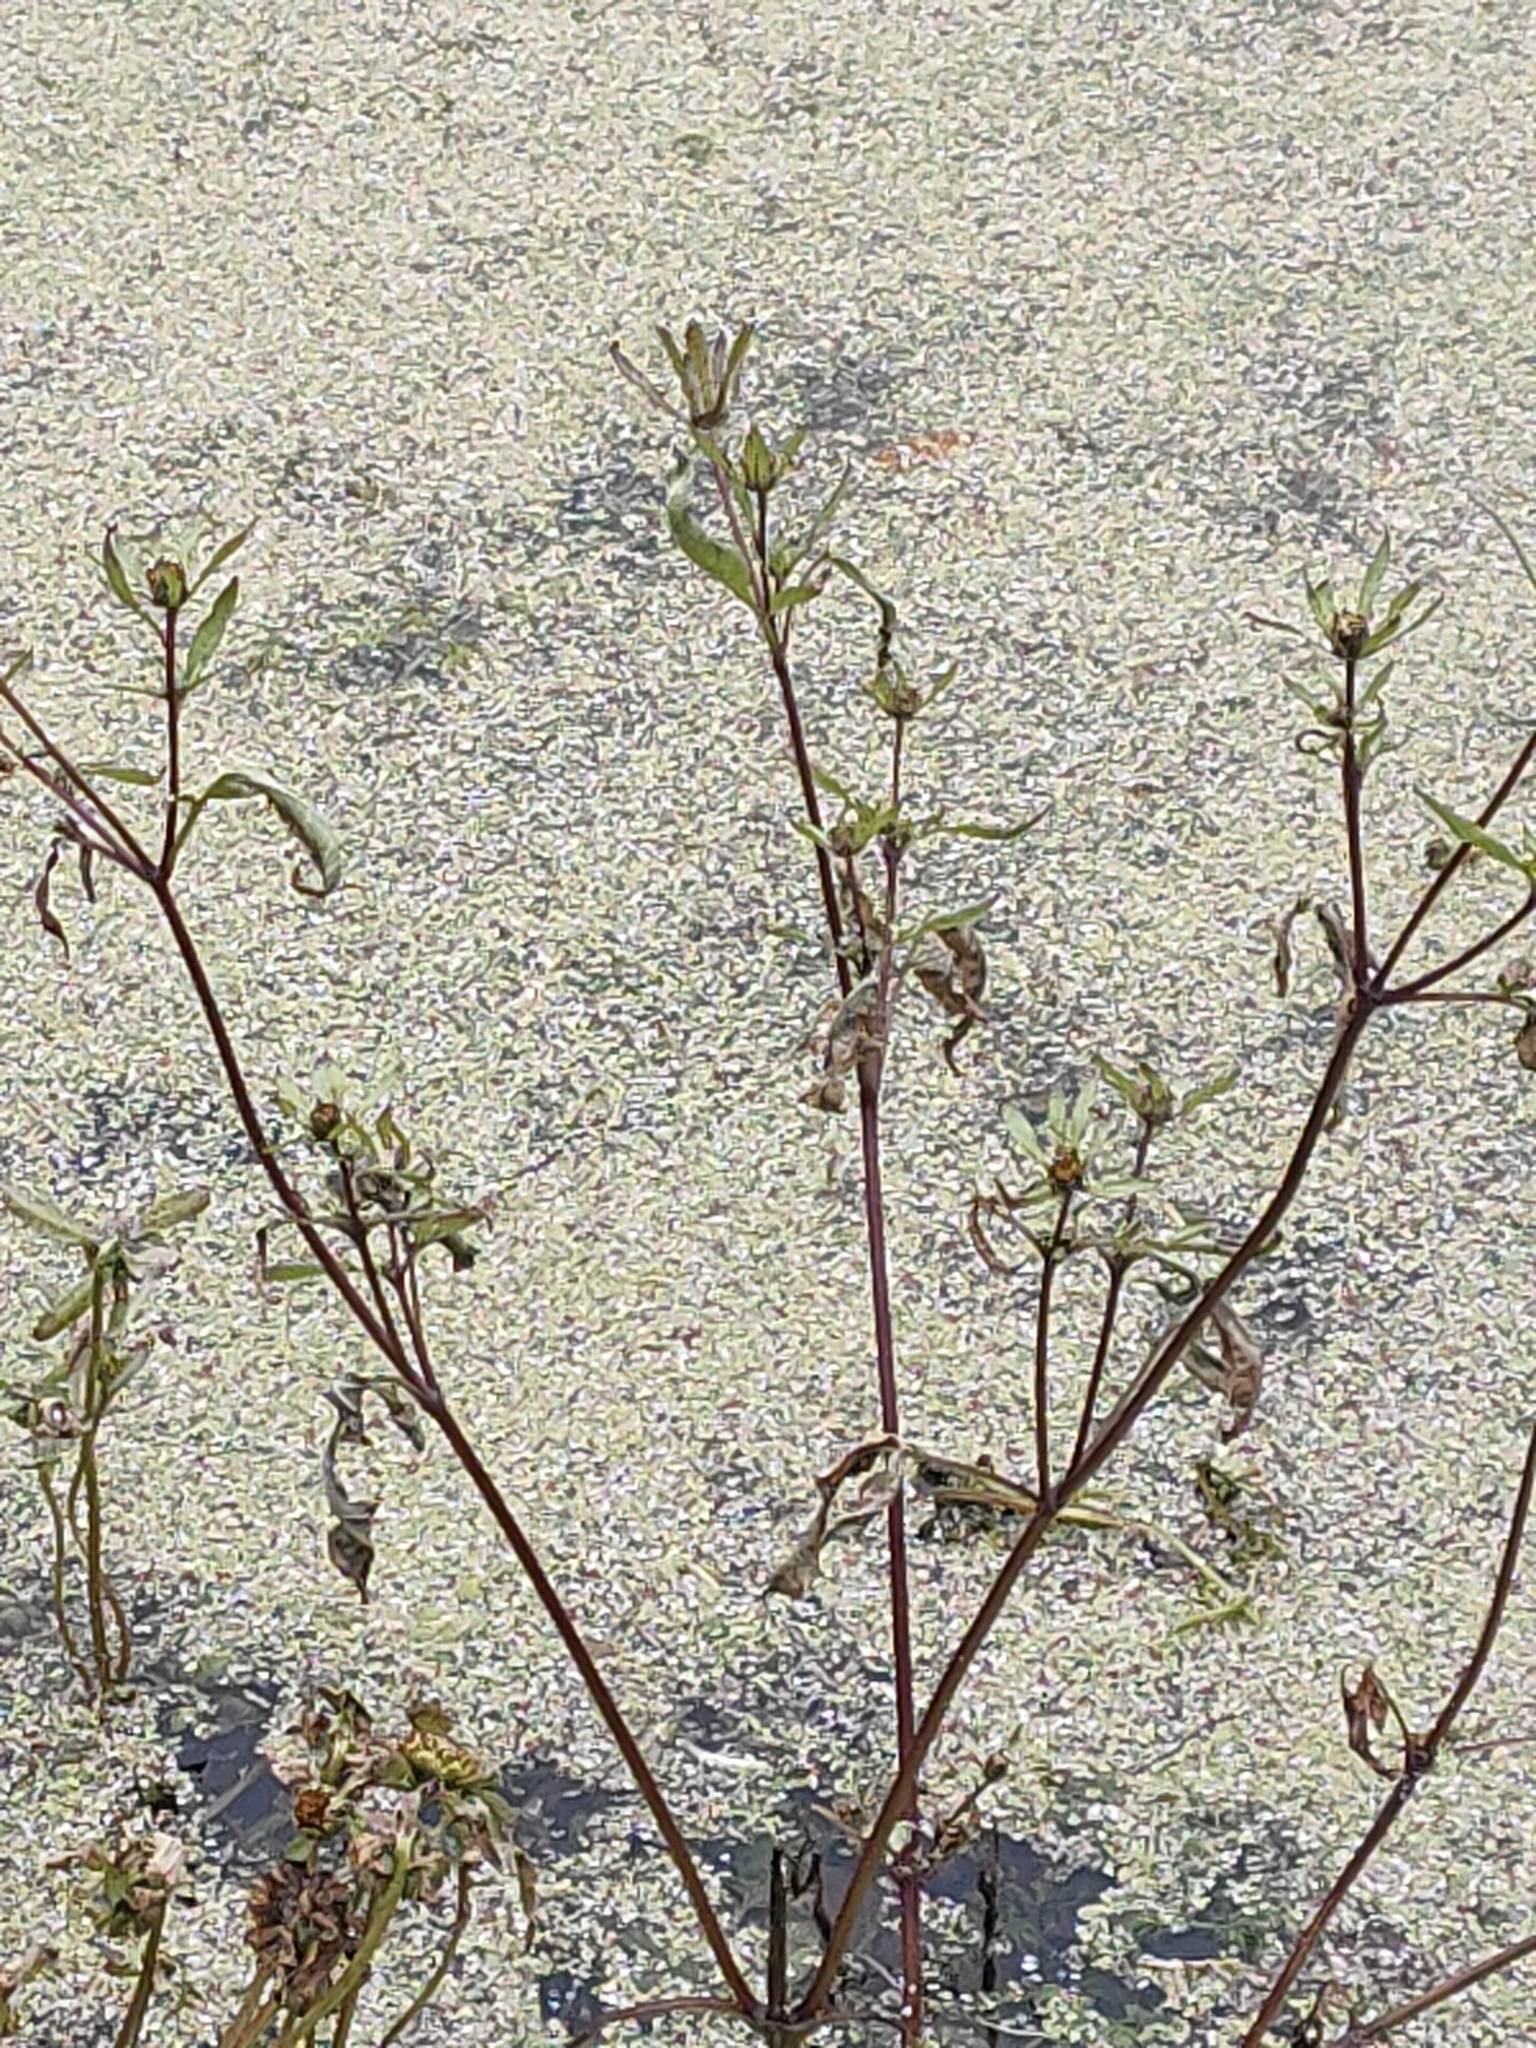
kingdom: Plantae
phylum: Tracheophyta
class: Magnoliopsida
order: Asterales
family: Asteraceae
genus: Bidens
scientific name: Bidens frondosa
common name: Beggarticks
